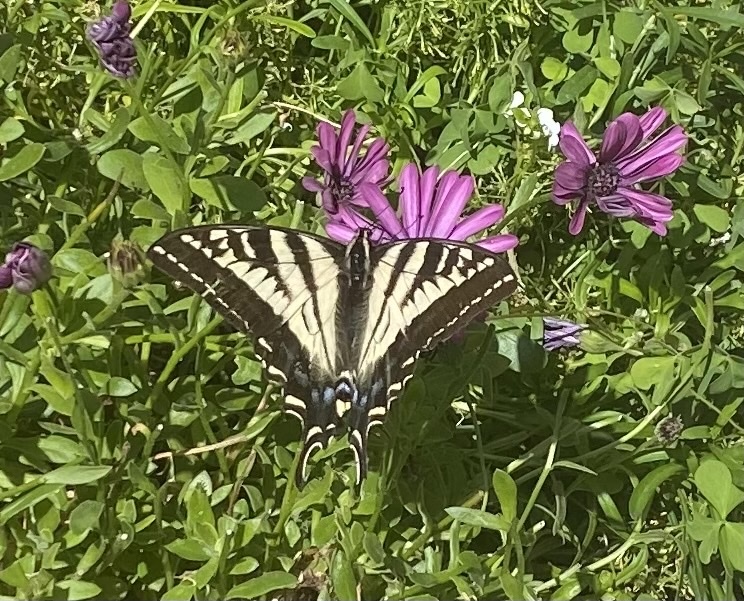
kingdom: Animalia
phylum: Arthropoda
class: Insecta
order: Lepidoptera
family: Papilionidae
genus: Papilio
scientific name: Papilio eurymedon
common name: Pale tiger swallowtail
